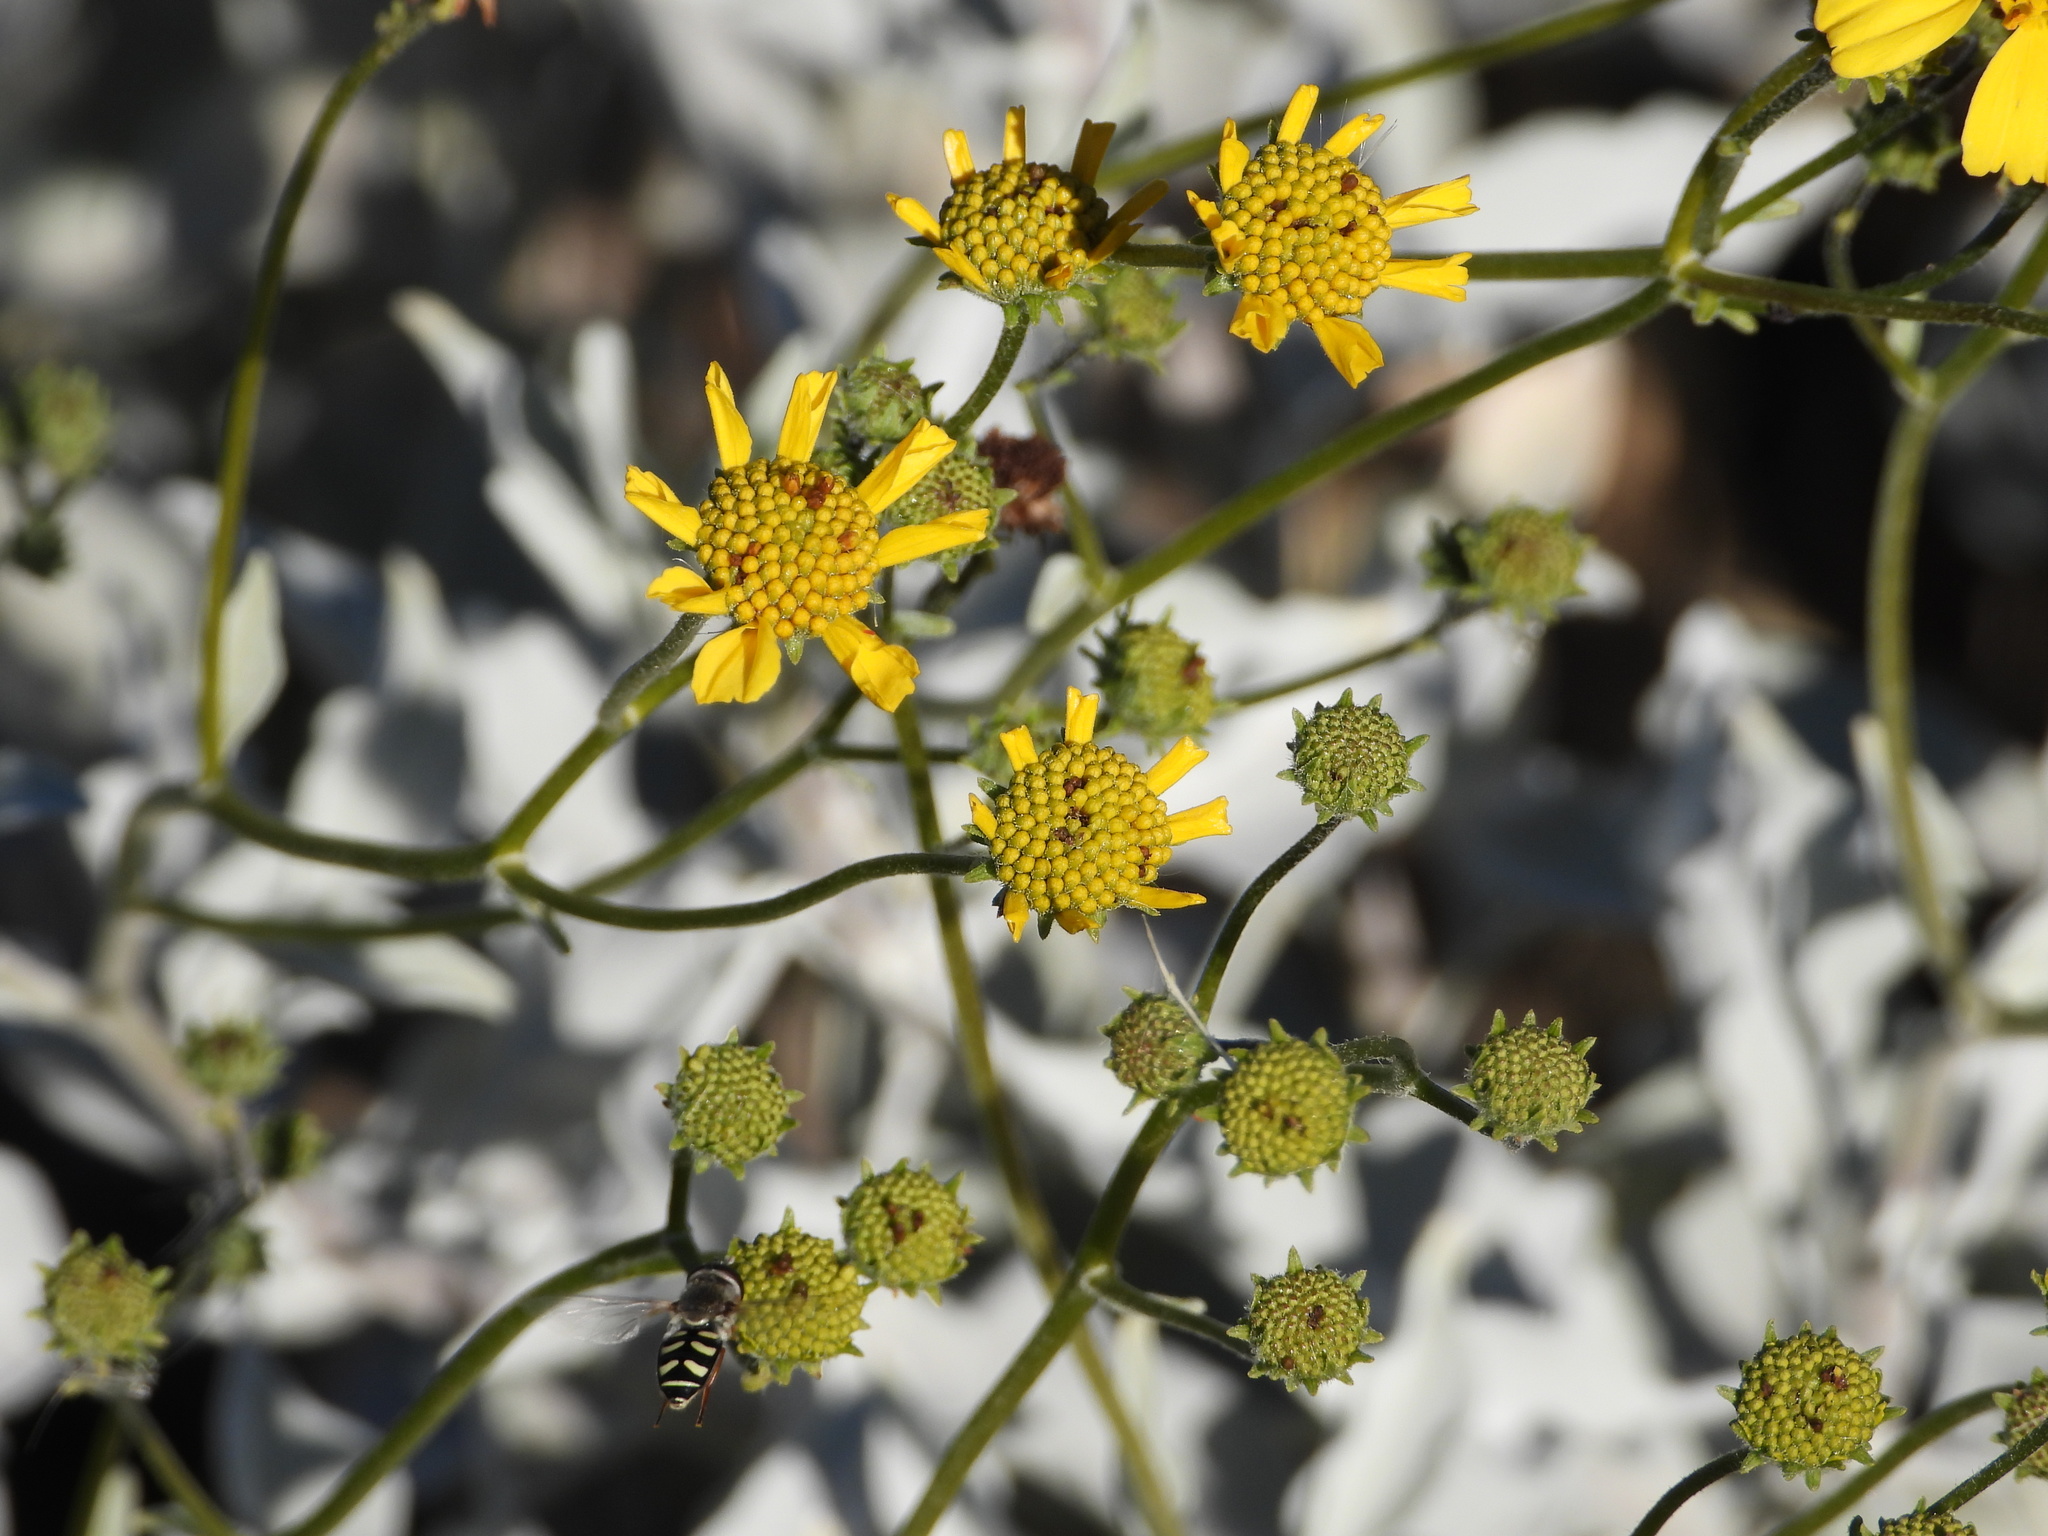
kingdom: Animalia
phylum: Arthropoda
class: Insecta
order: Diptera
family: Syrphidae
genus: Eupeodes
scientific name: Eupeodes volucris
